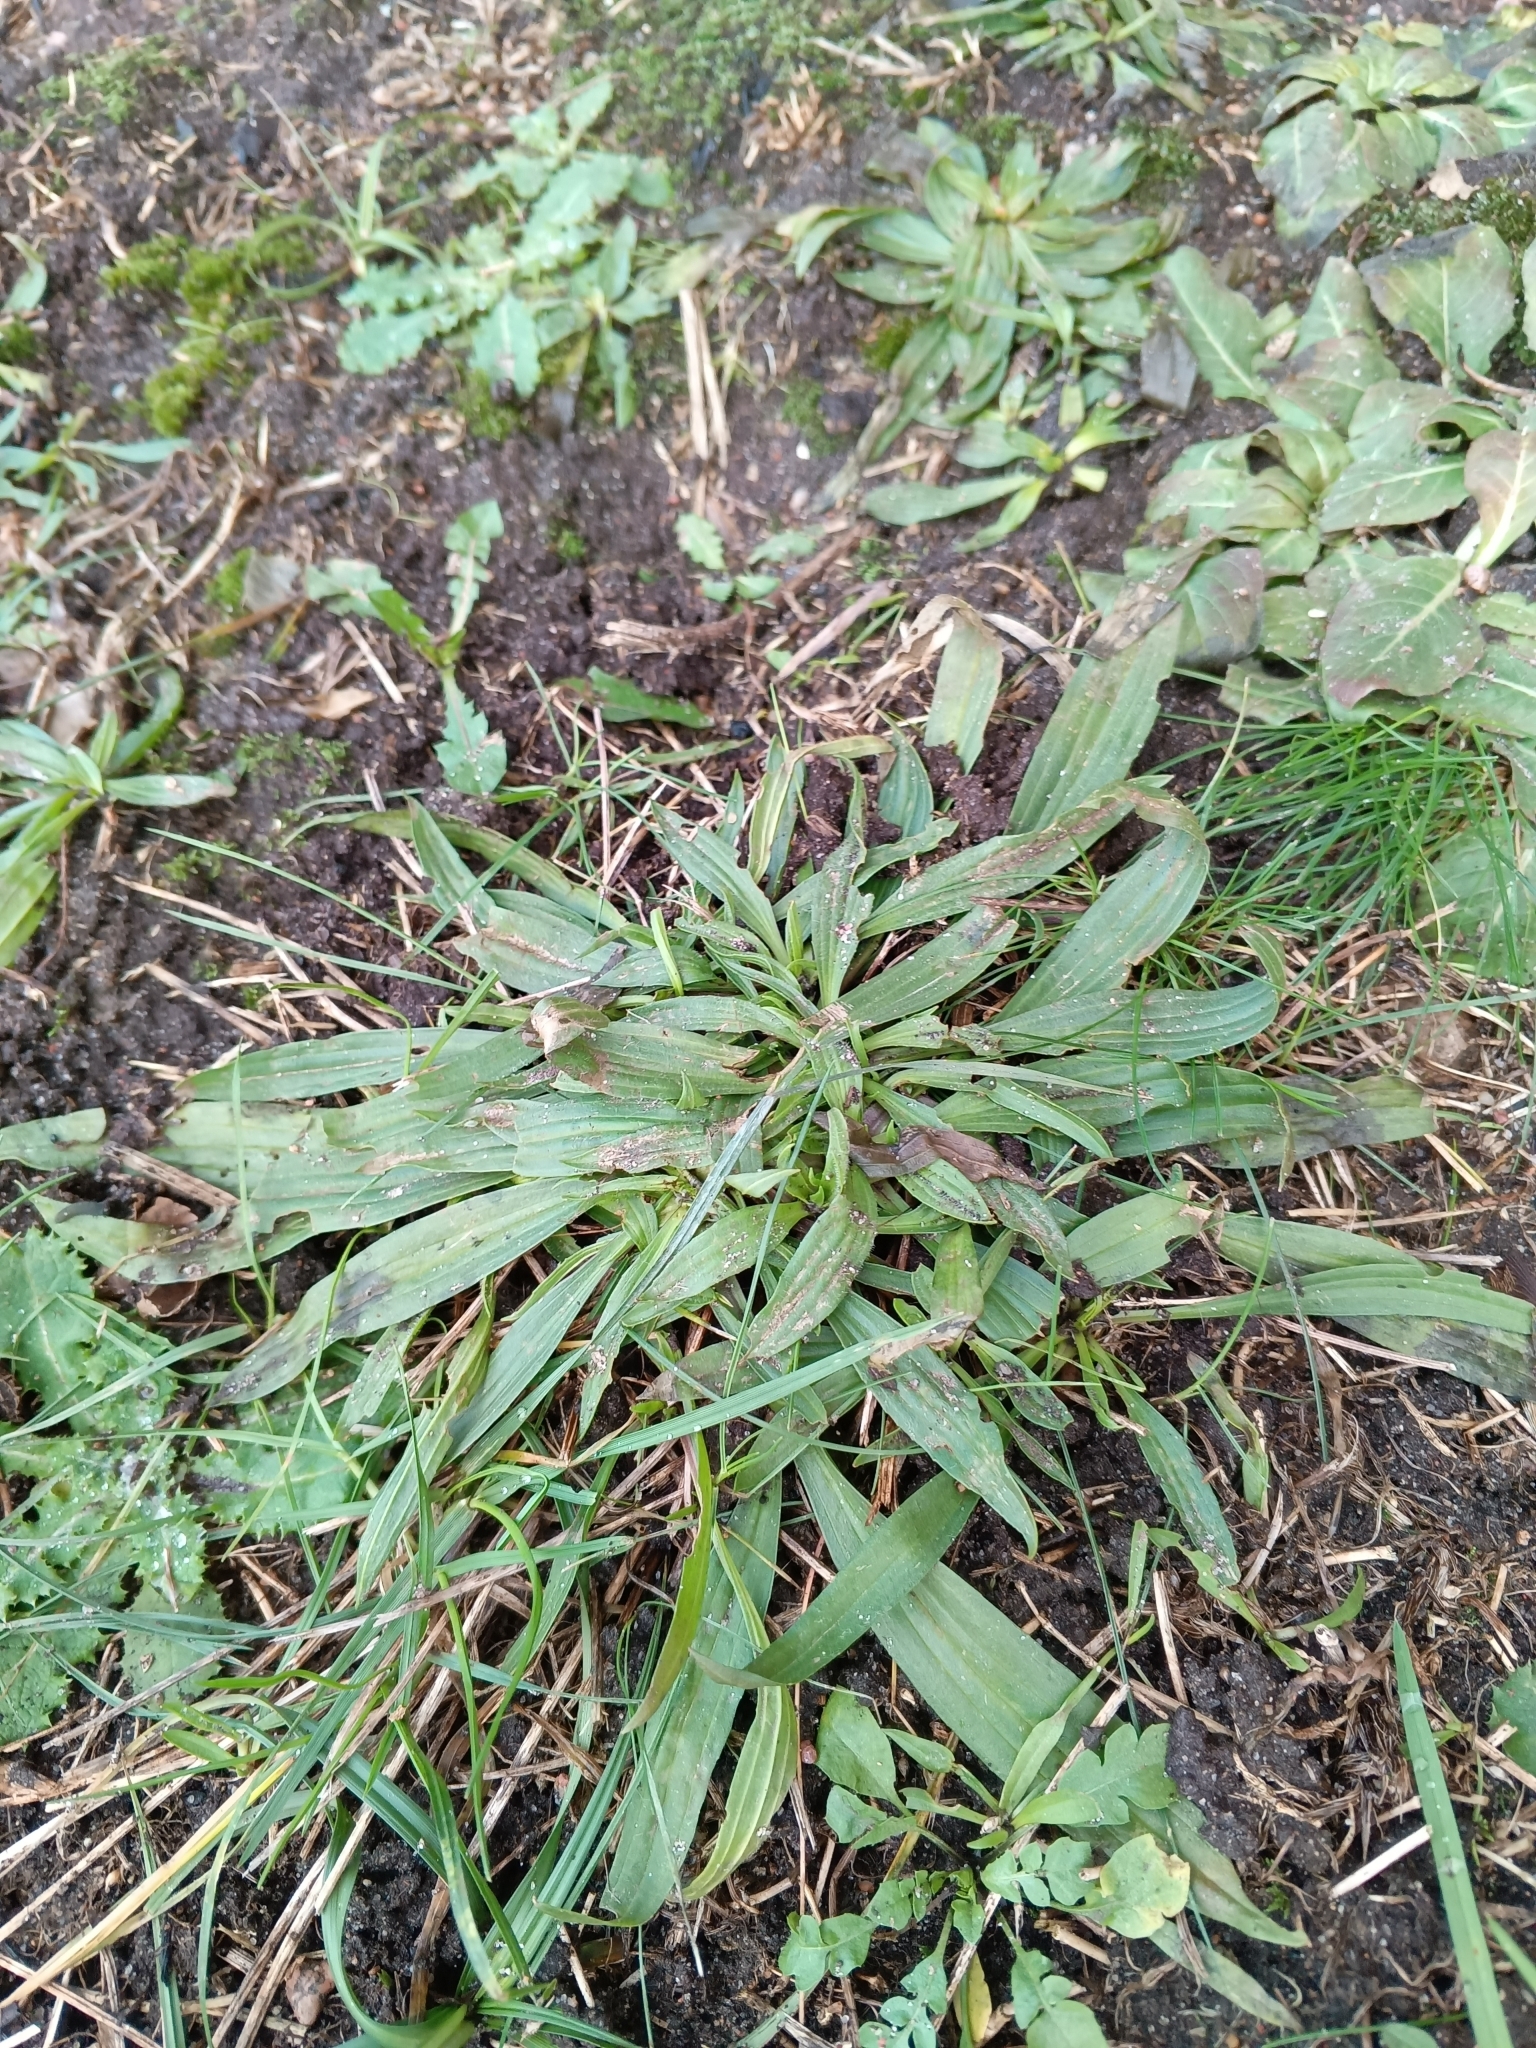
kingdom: Plantae
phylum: Tracheophyta
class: Magnoliopsida
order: Lamiales
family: Plantaginaceae
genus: Plantago
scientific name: Plantago lanceolata
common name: Ribwort plantain
